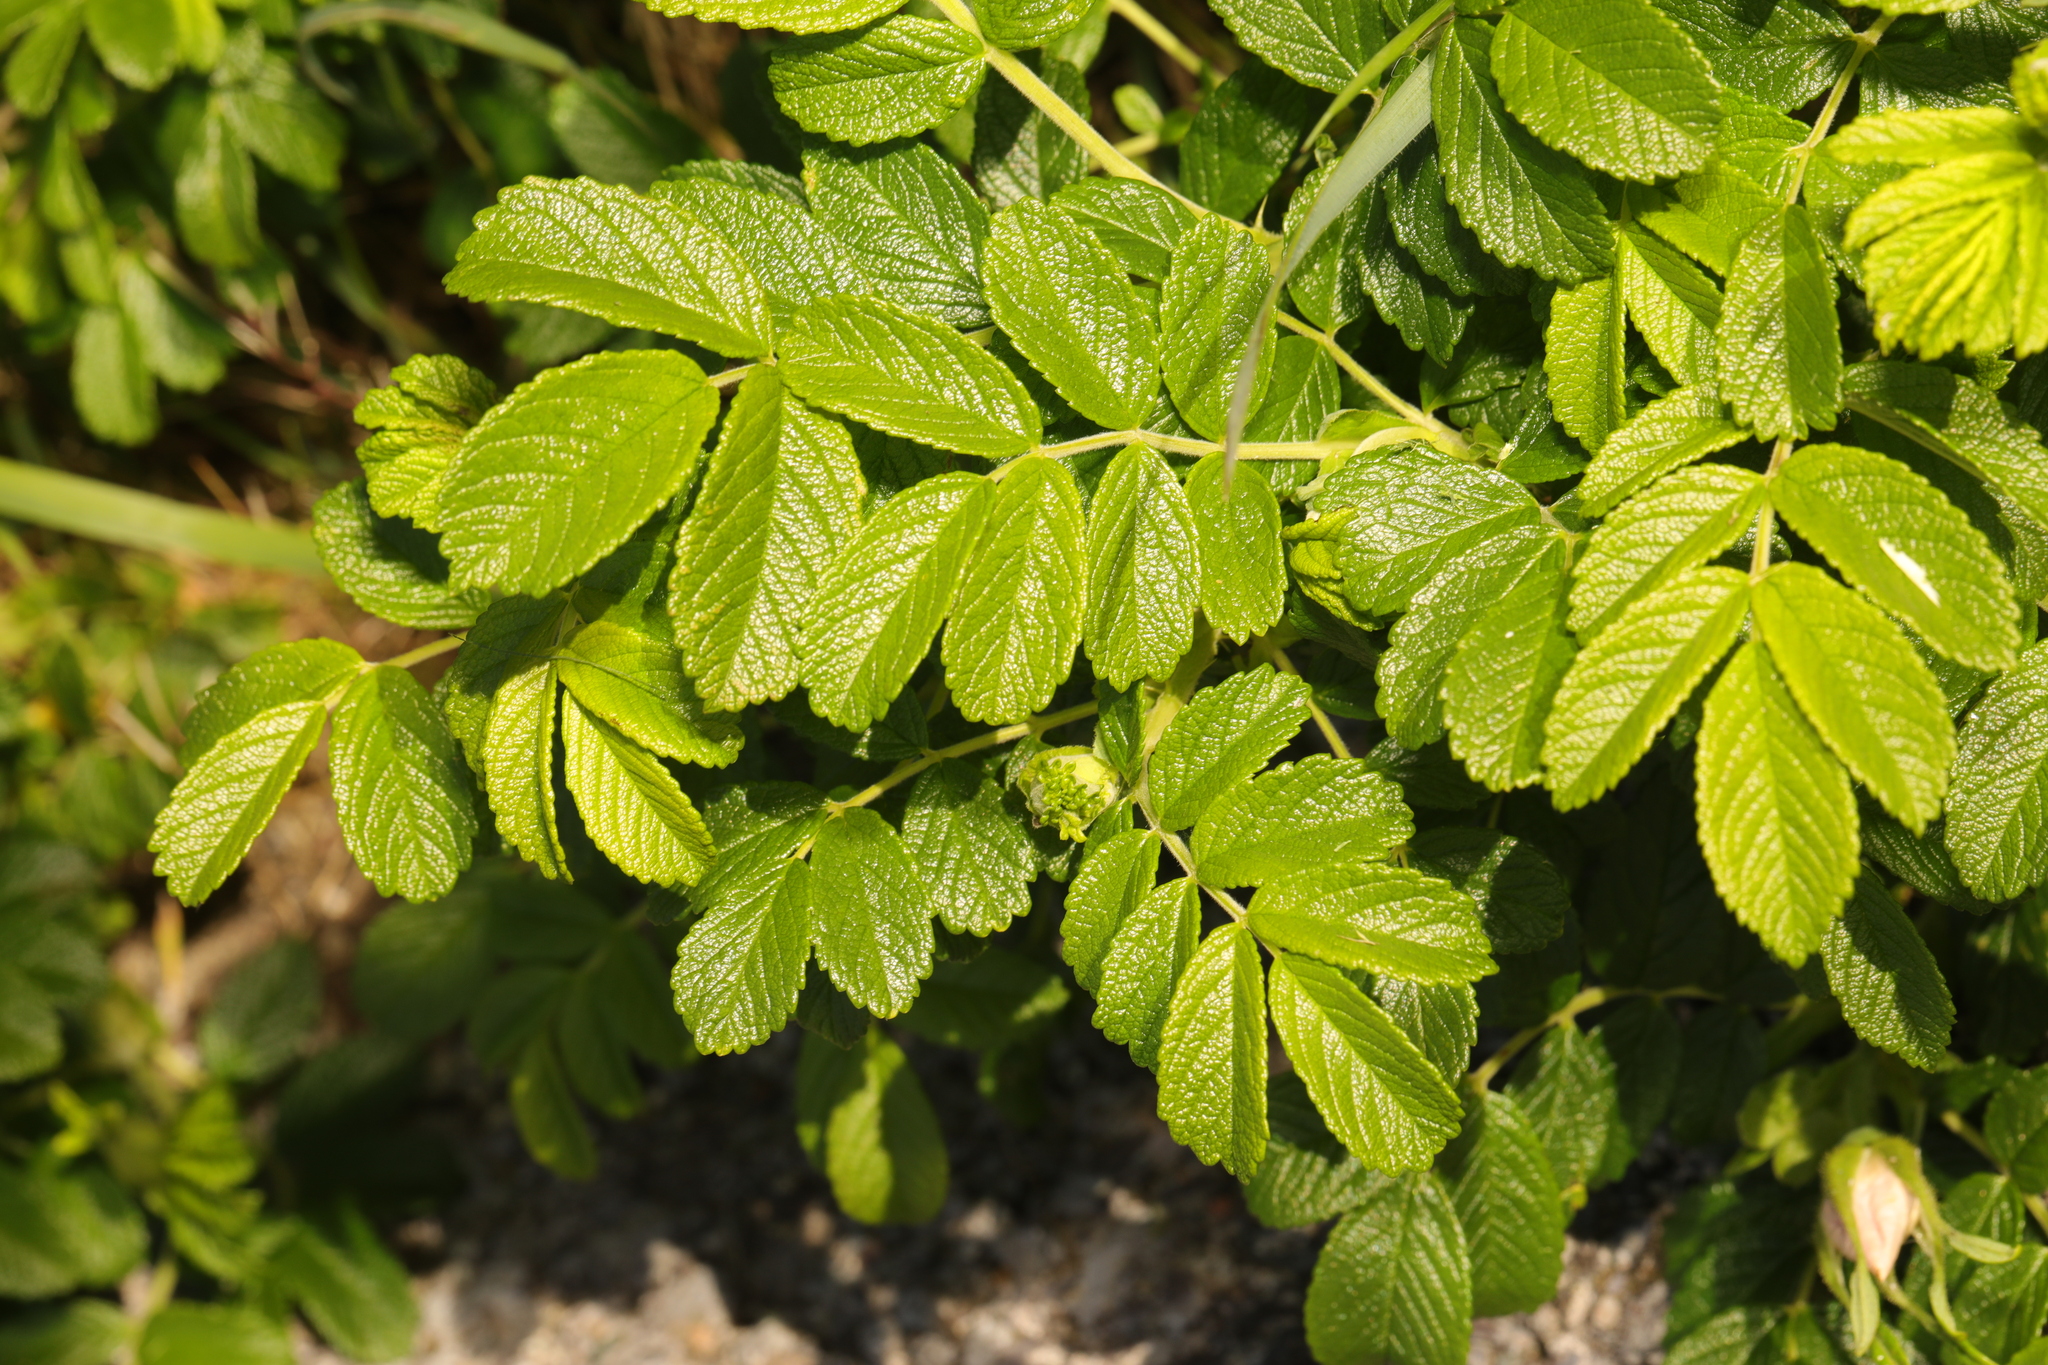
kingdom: Plantae
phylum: Tracheophyta
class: Magnoliopsida
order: Rosales
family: Rosaceae
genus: Rosa
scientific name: Rosa rugosa
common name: Japanese rose
